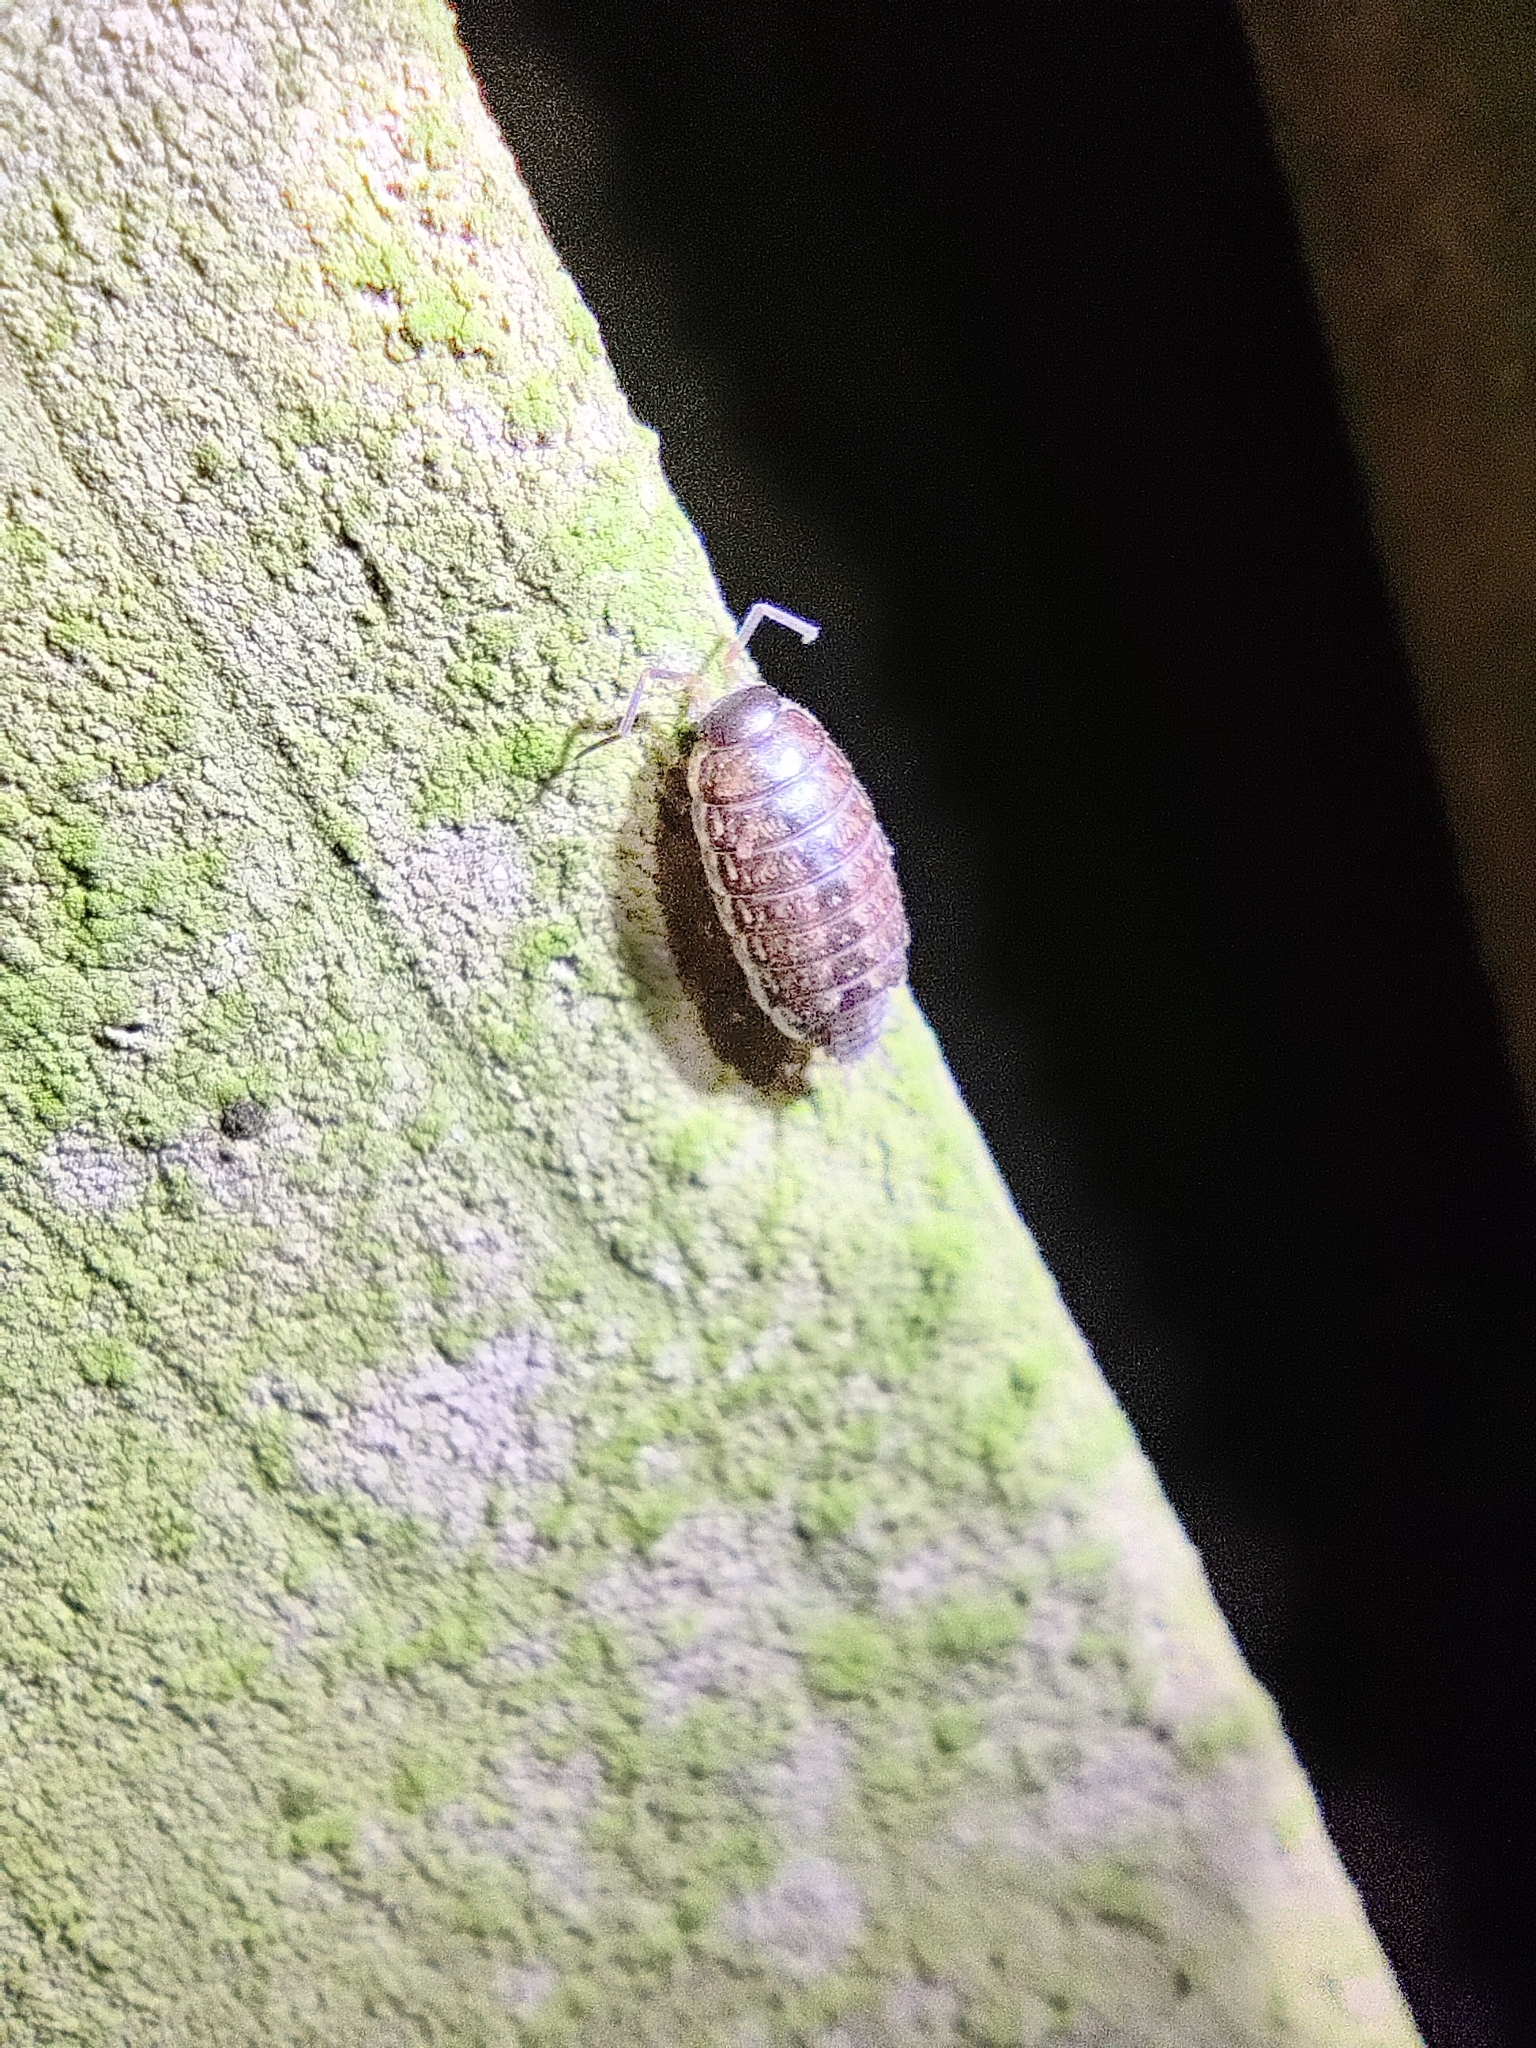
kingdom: Animalia
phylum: Arthropoda
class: Malacostraca
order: Isopoda
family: Philosciidae
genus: Philoscia
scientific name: Philoscia muscorum
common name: Common striped woodlouse
